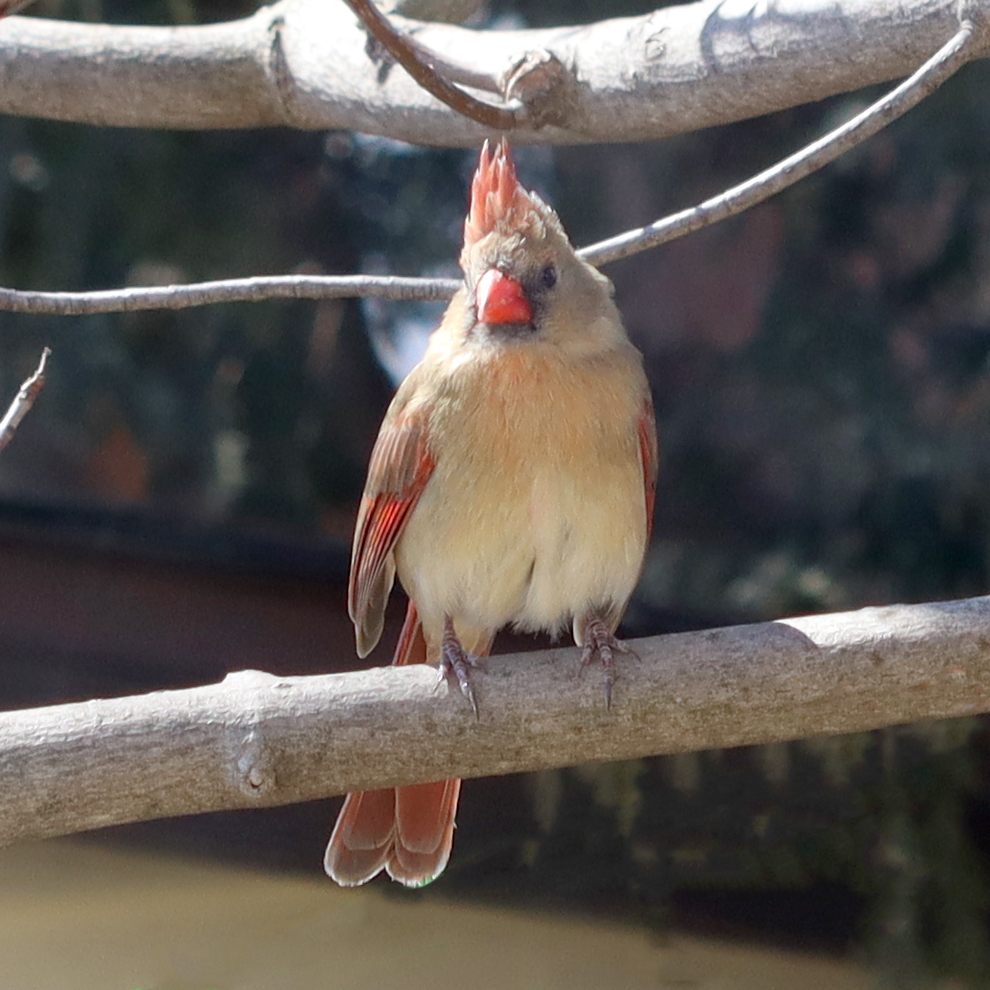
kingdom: Animalia
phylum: Chordata
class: Aves
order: Passeriformes
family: Cardinalidae
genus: Cardinalis
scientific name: Cardinalis cardinalis
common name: Northern cardinal
